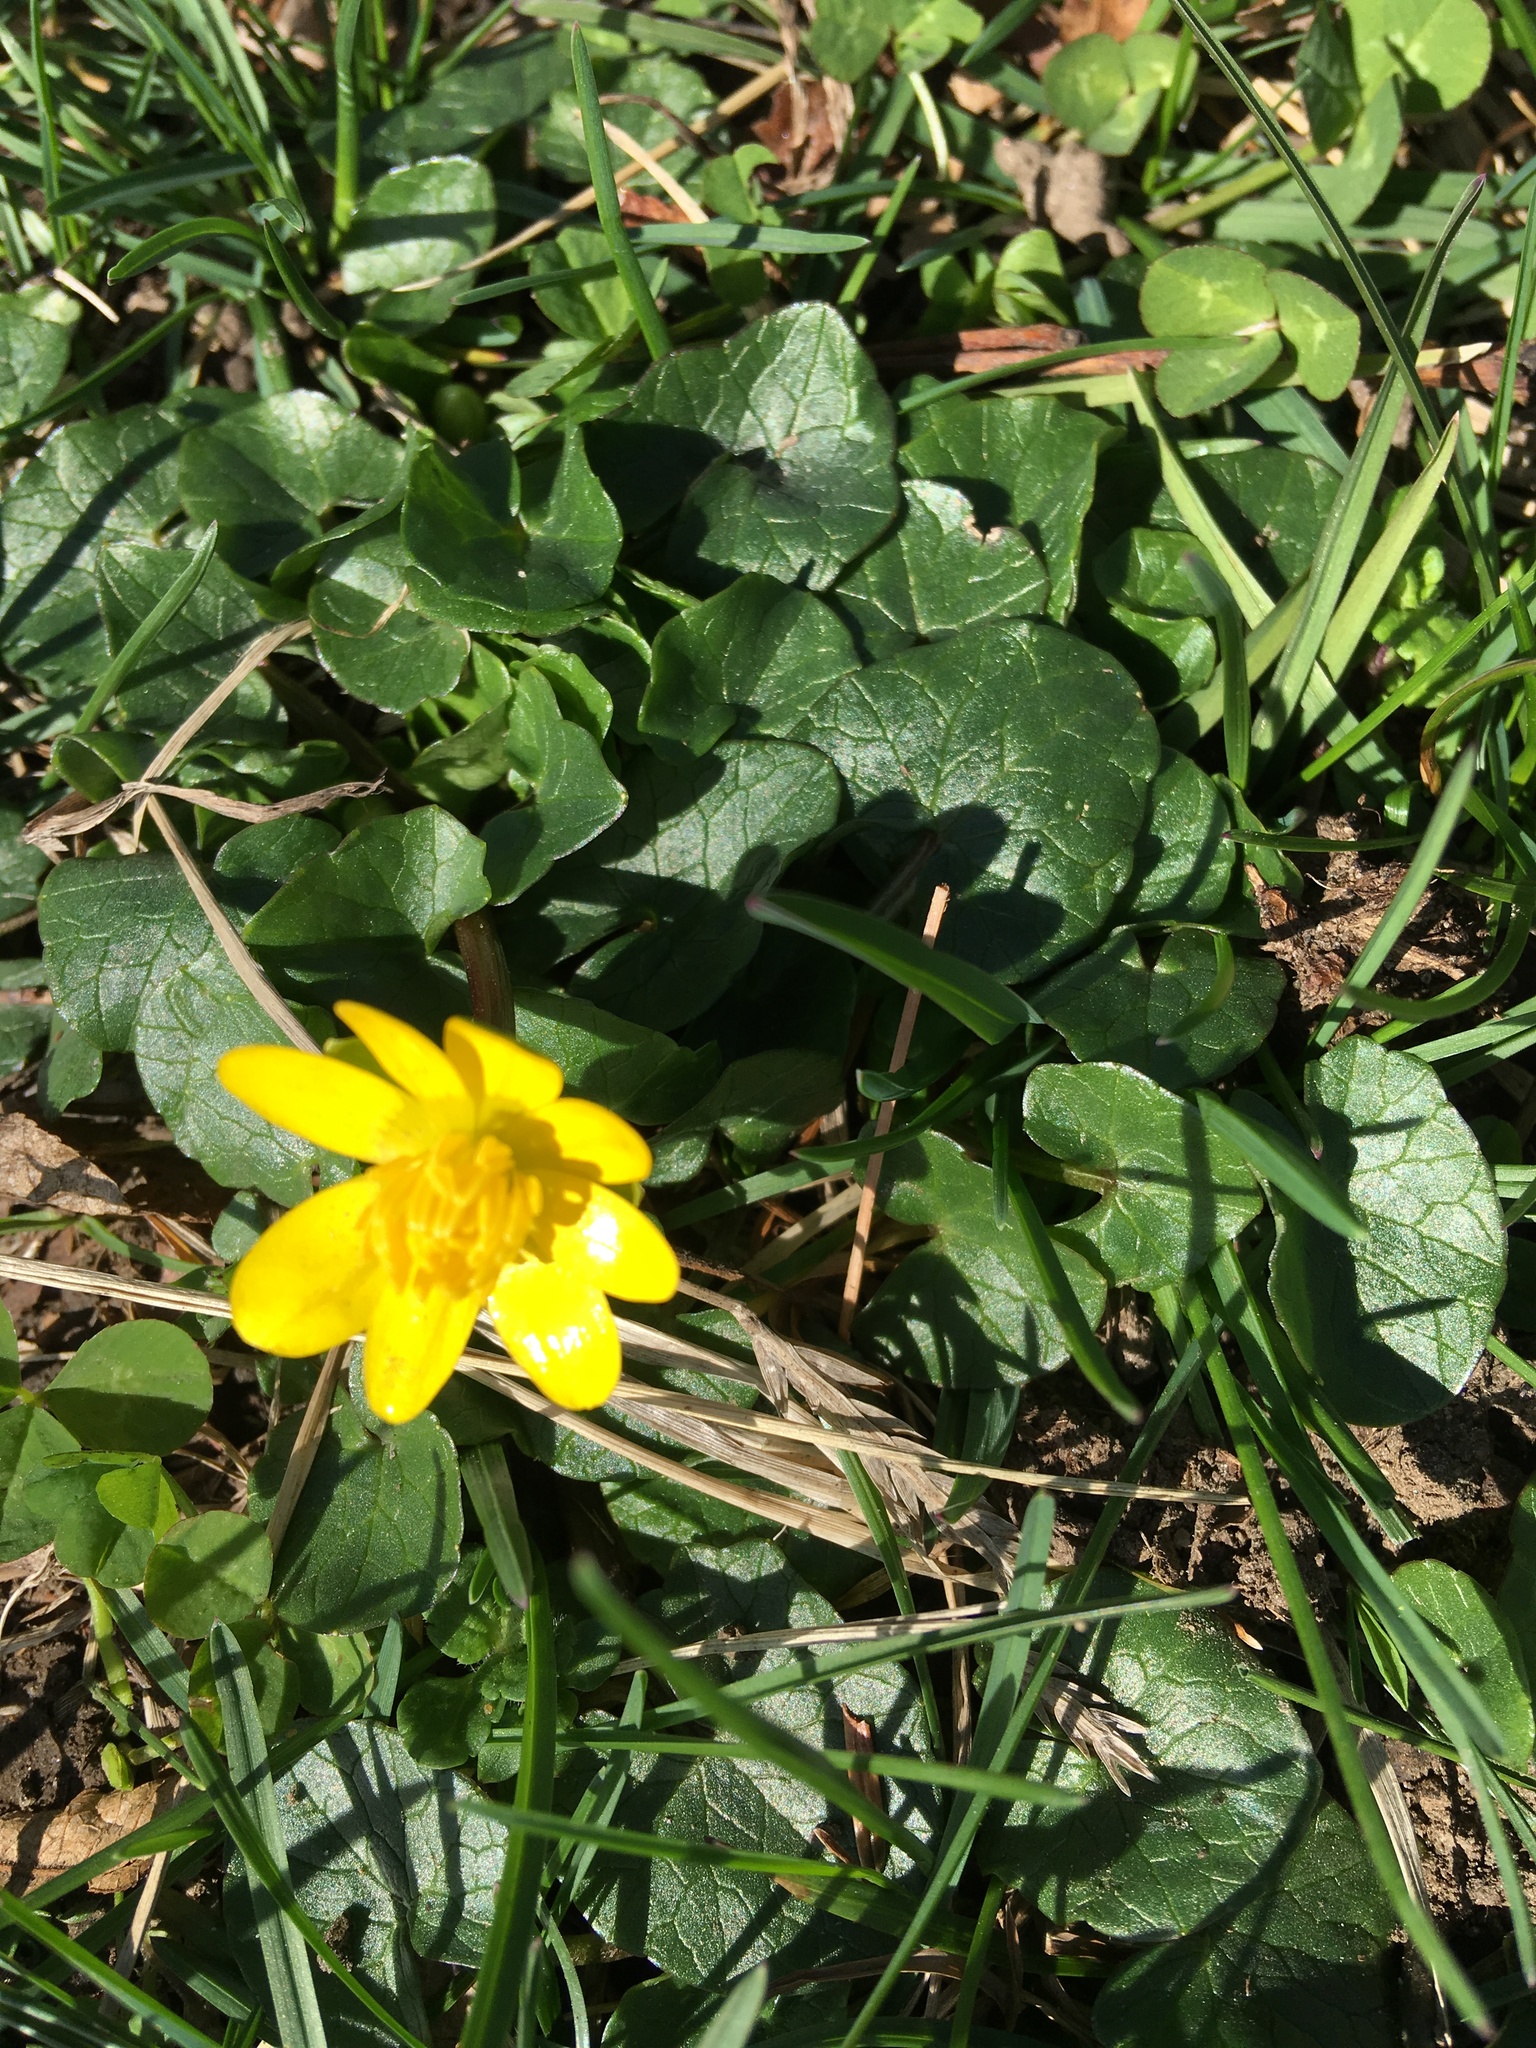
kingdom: Plantae
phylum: Tracheophyta
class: Magnoliopsida
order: Ranunculales
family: Ranunculaceae
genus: Ficaria
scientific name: Ficaria verna
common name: Lesser celandine
